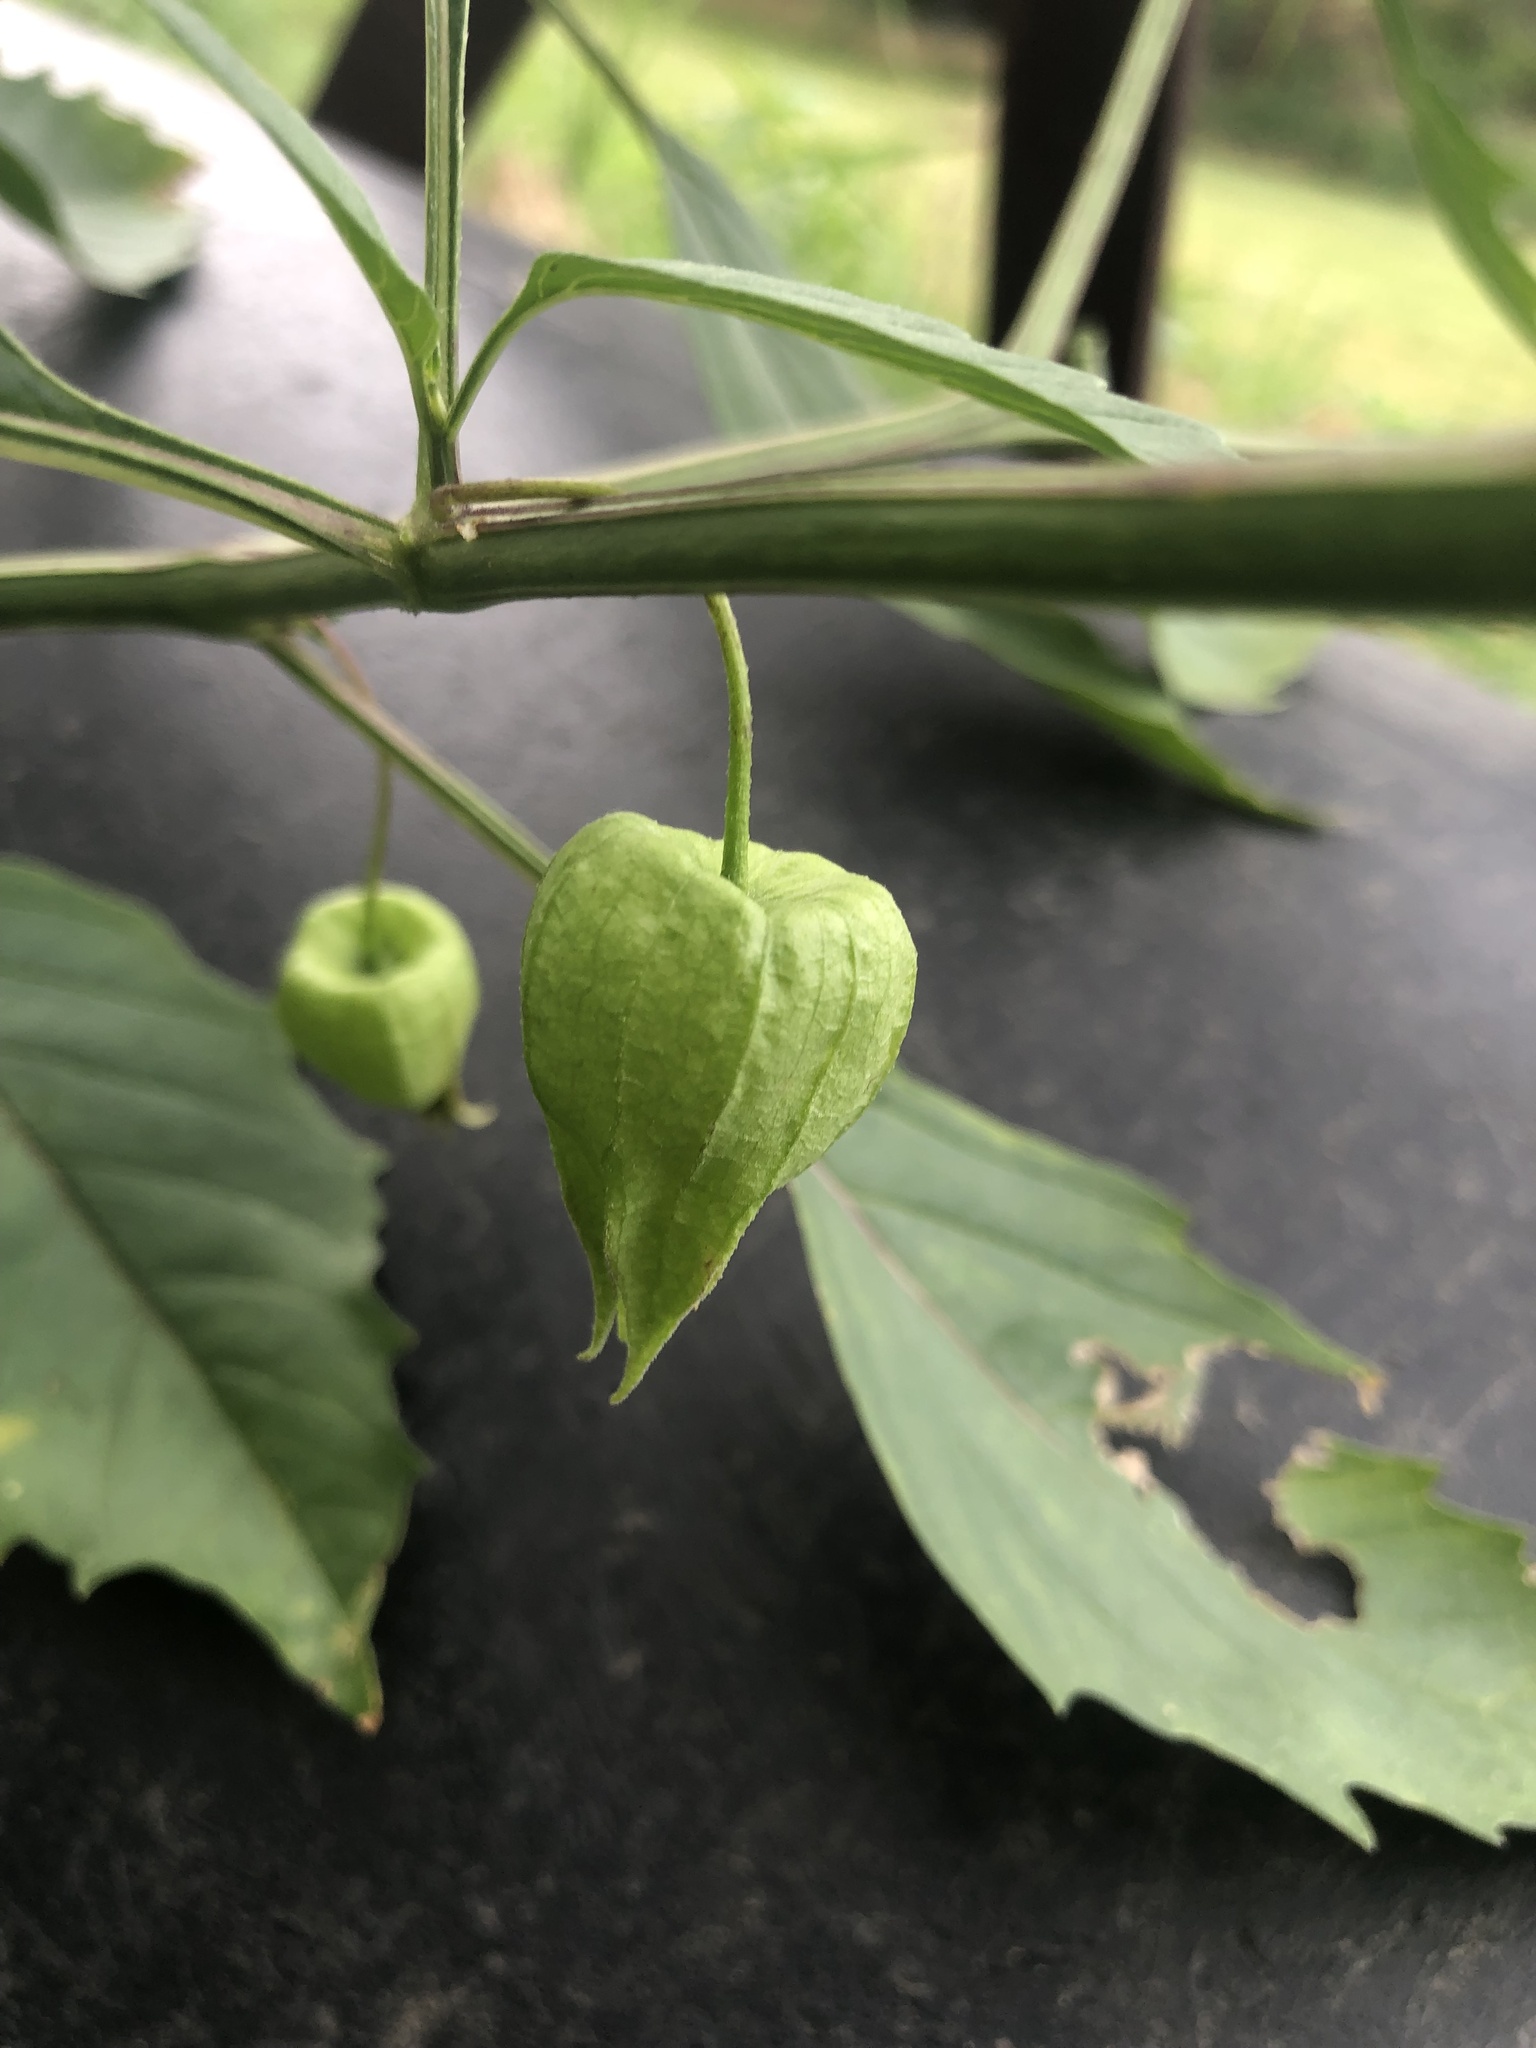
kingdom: Plantae
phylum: Tracheophyta
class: Magnoliopsida
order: Solanales
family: Solanaceae
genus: Physalis
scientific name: Physalis longifolia
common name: Common ground-cherry
